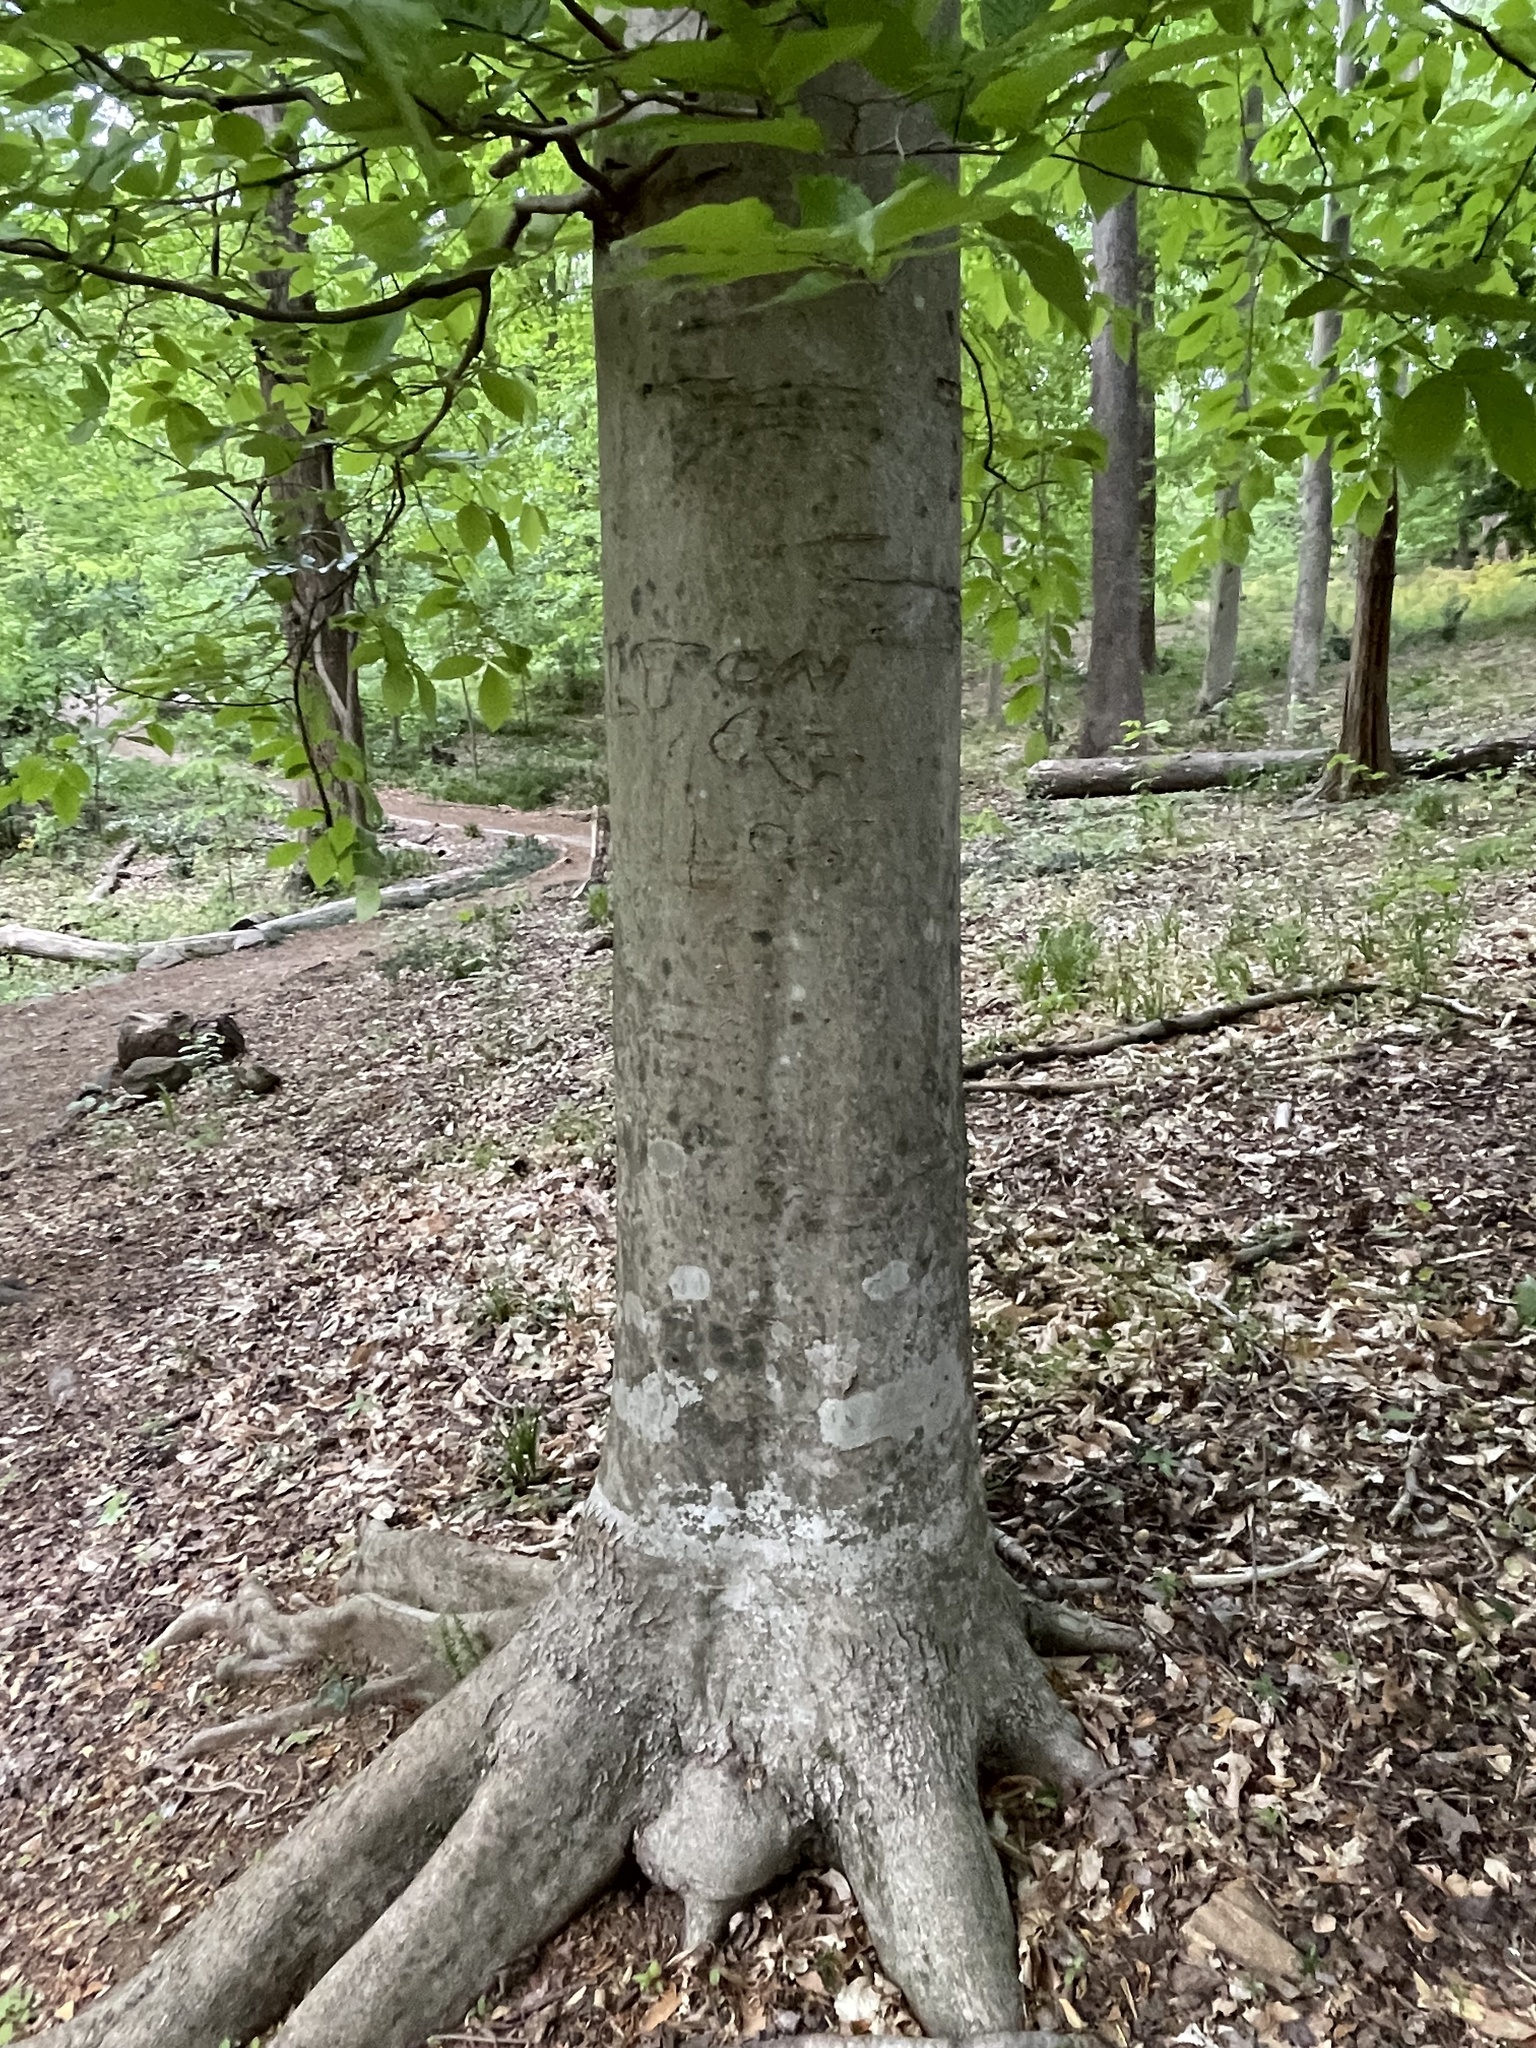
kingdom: Plantae
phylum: Tracheophyta
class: Magnoliopsida
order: Fagales
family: Fagaceae
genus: Fagus
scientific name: Fagus grandifolia
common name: American beech
